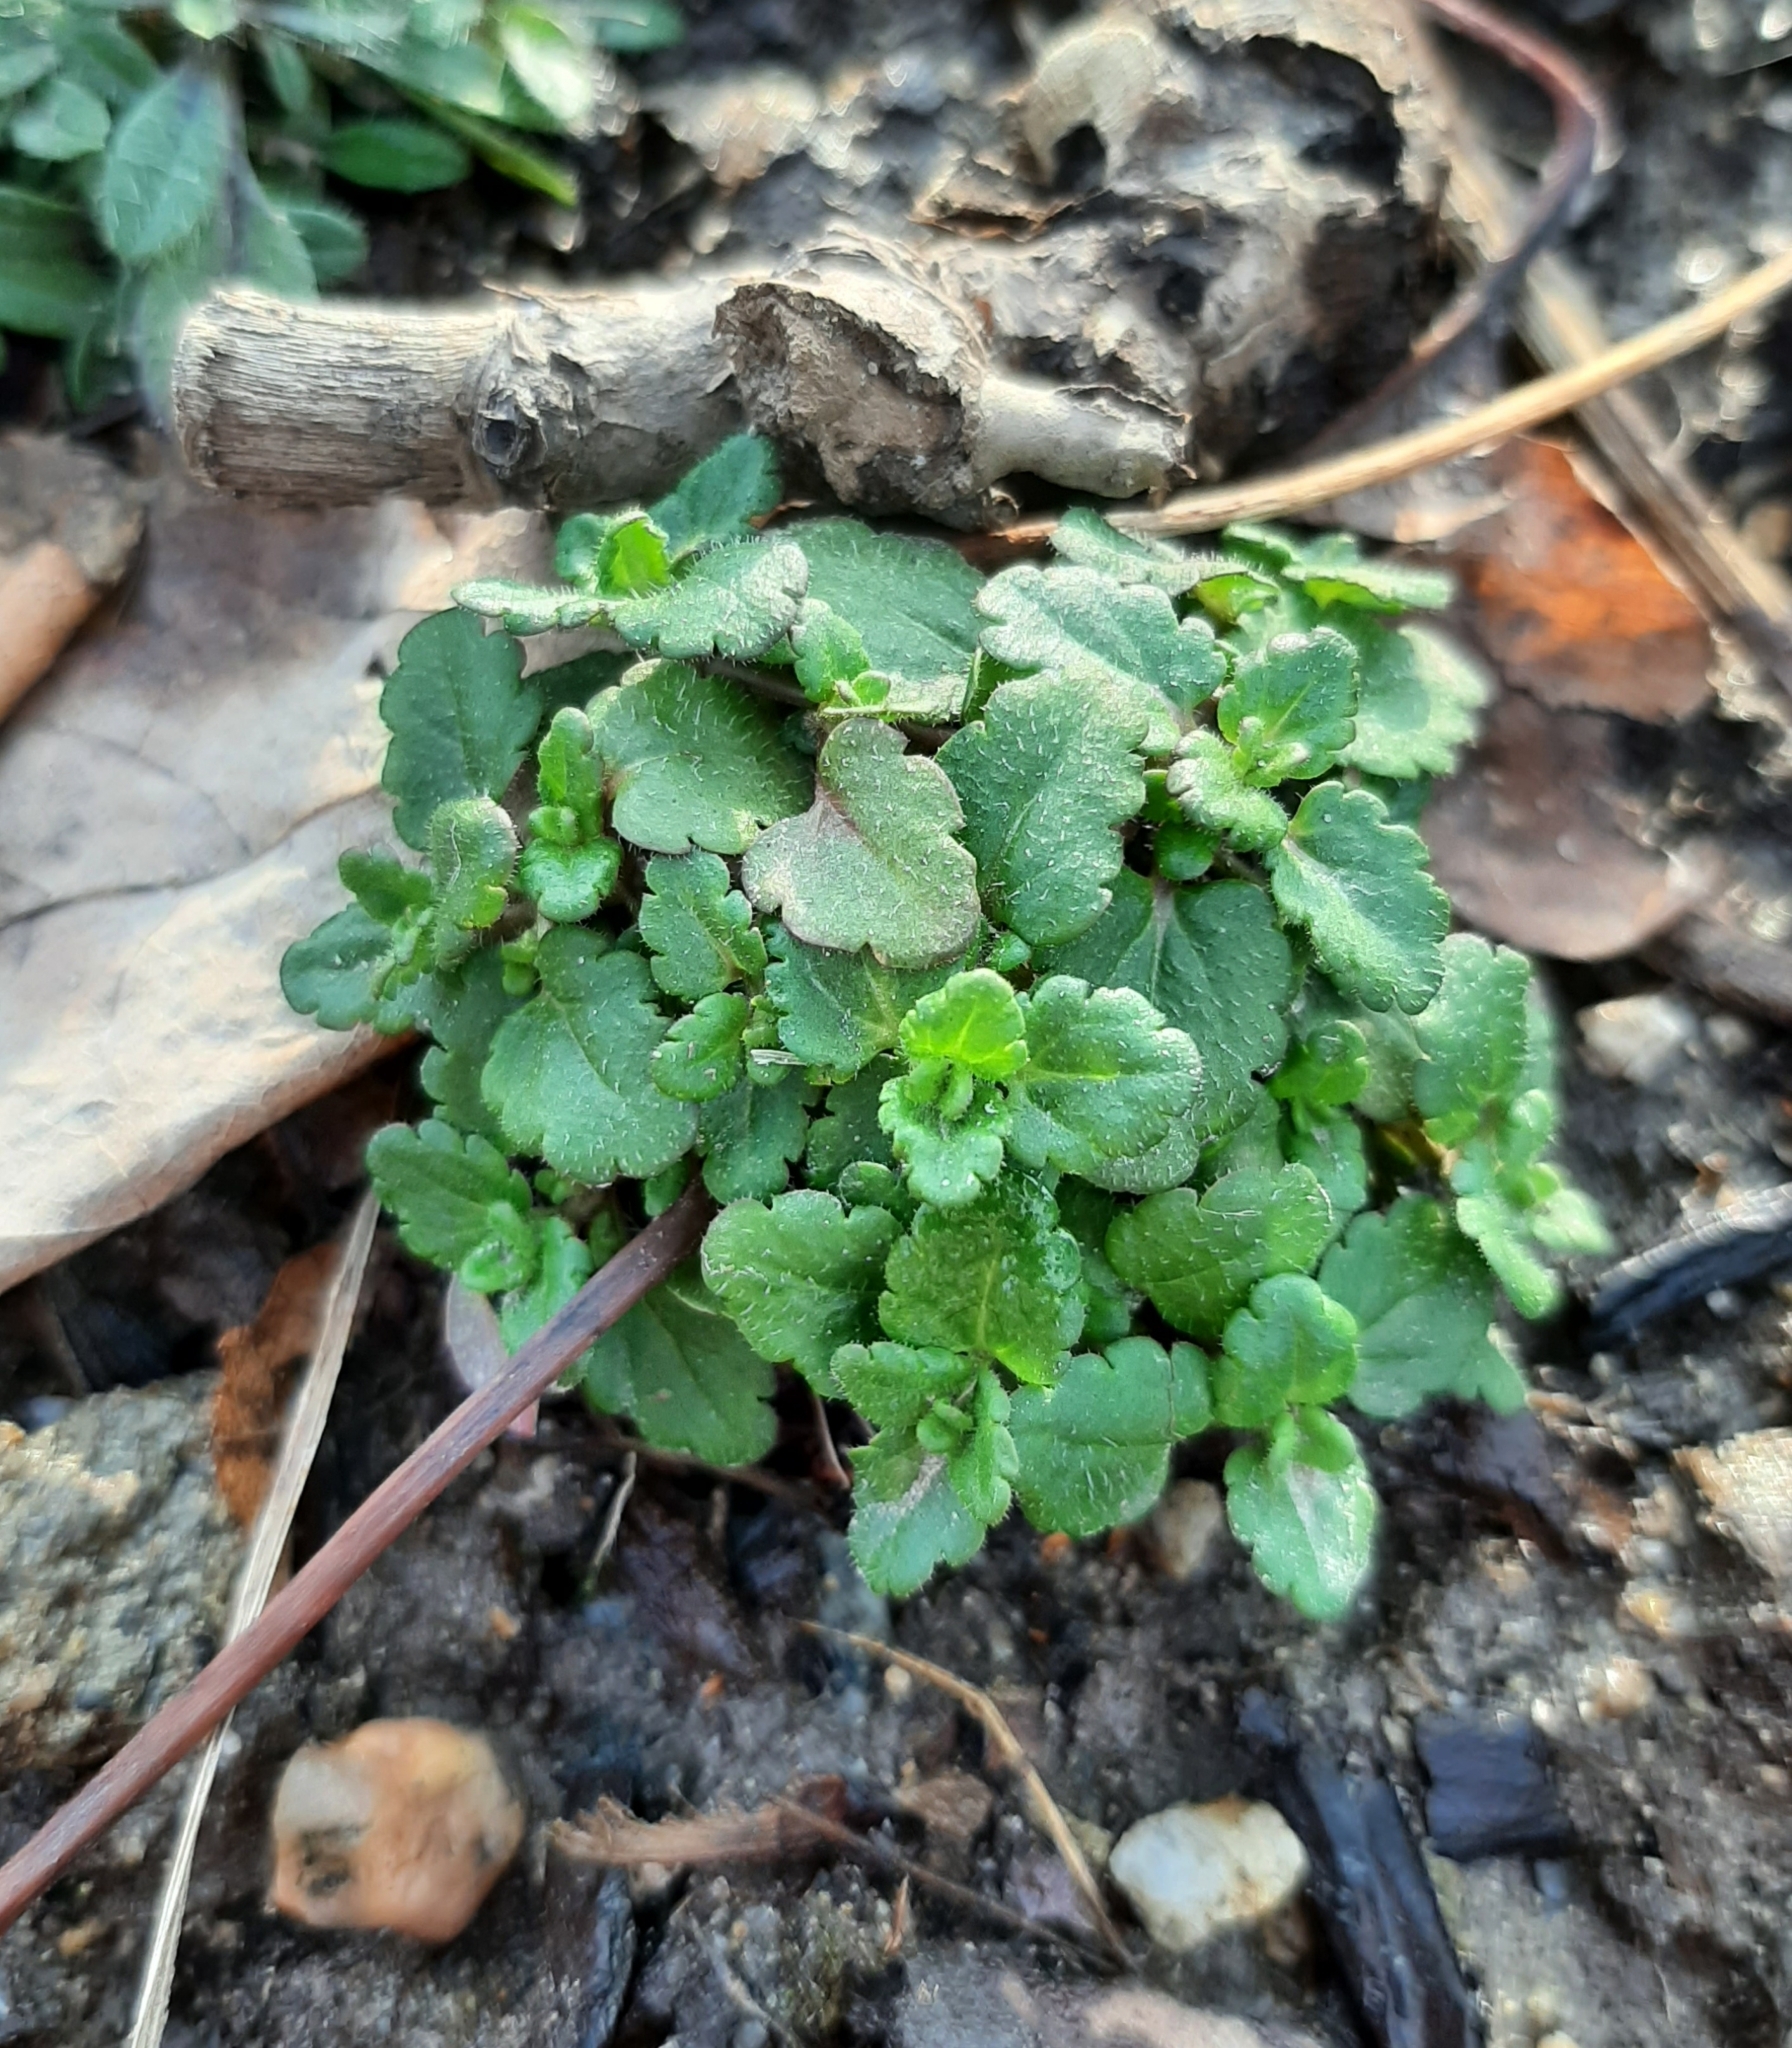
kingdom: Plantae
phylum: Tracheophyta
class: Magnoliopsida
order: Lamiales
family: Plantaginaceae
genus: Veronica
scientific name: Veronica arvensis
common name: Corn speedwell
